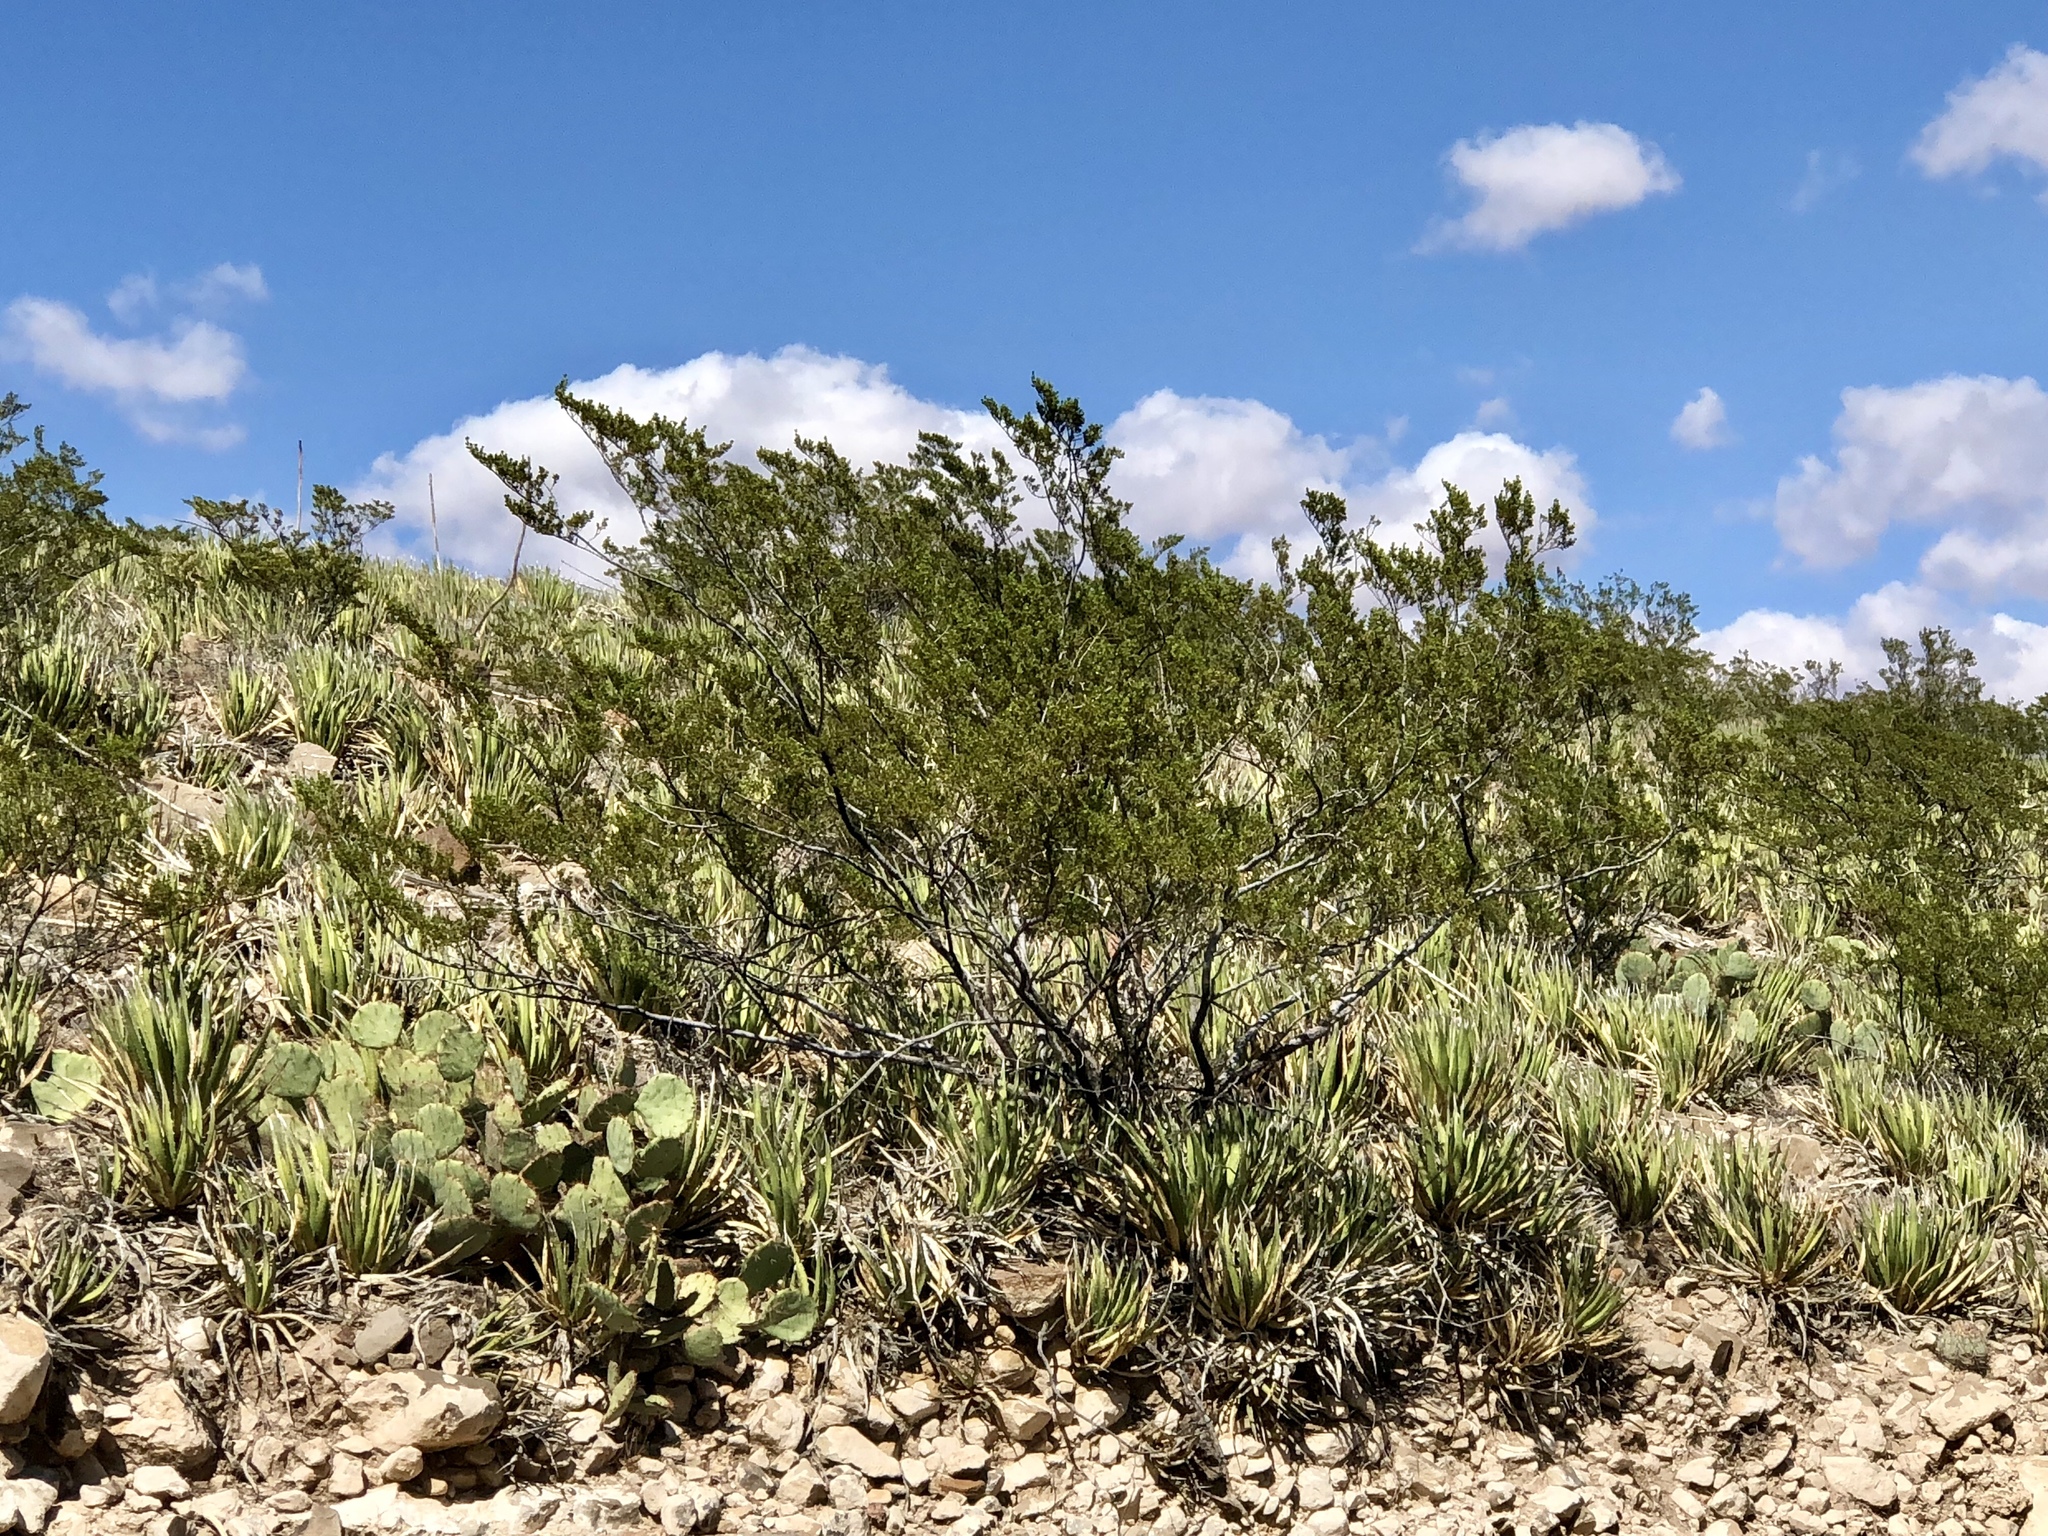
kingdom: Plantae
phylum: Tracheophyta
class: Magnoliopsida
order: Zygophyllales
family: Zygophyllaceae
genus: Larrea
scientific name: Larrea tridentata
